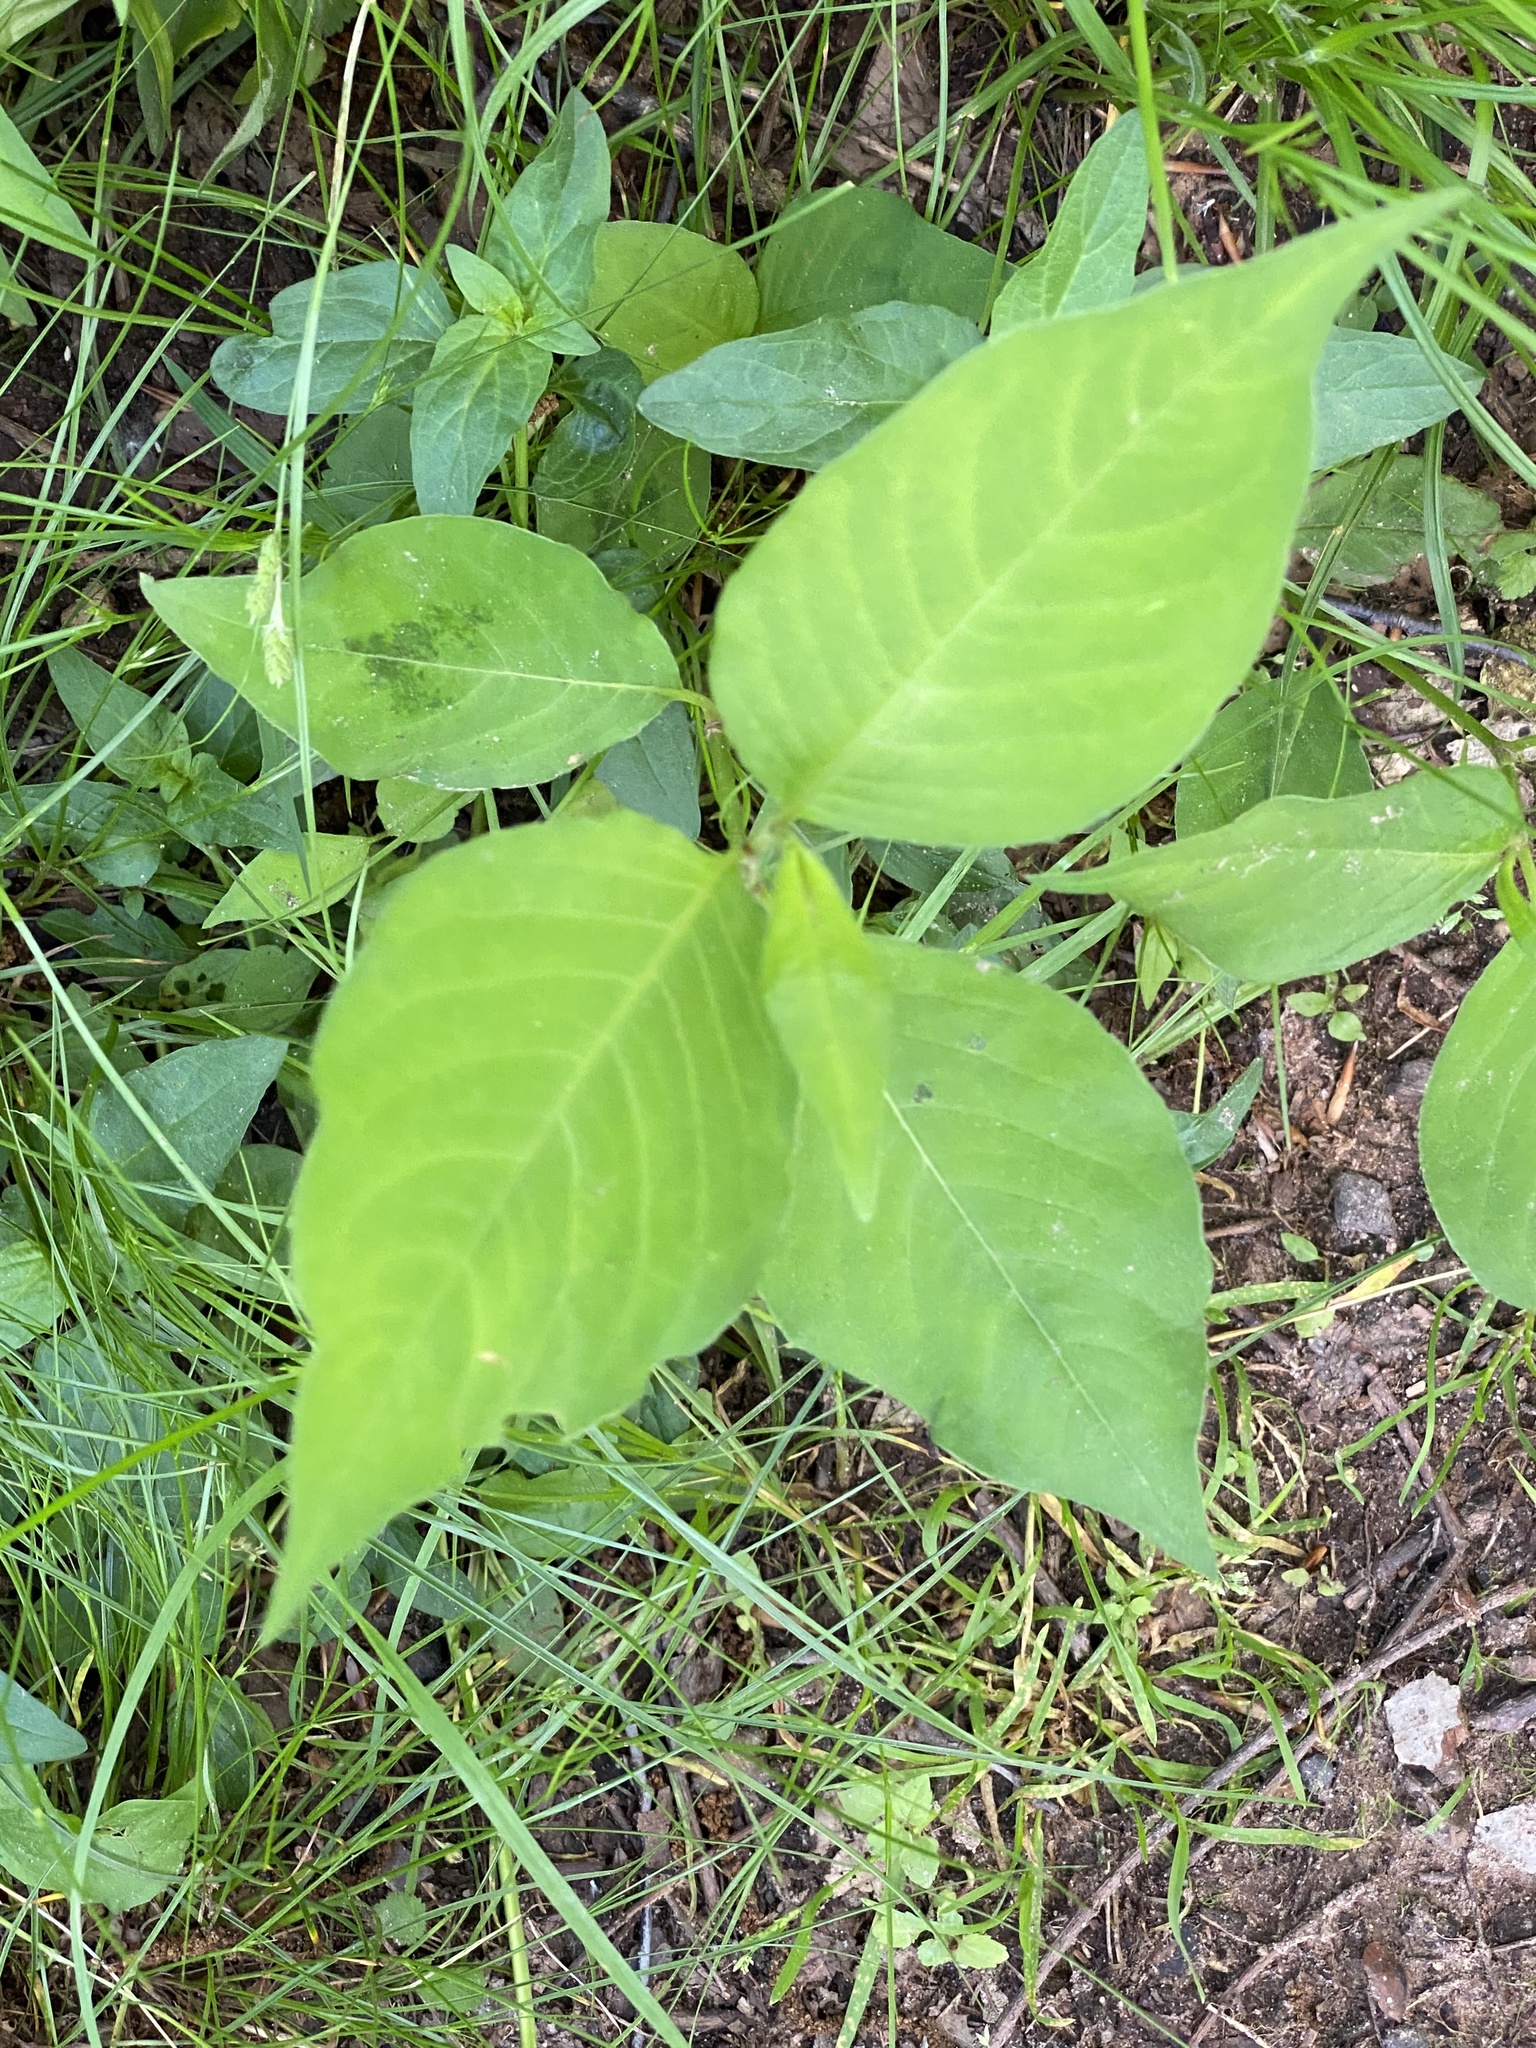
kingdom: Plantae
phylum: Tracheophyta
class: Magnoliopsida
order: Caryophyllales
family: Polygonaceae
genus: Persicaria
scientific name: Persicaria virginiana
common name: Jumpseed
